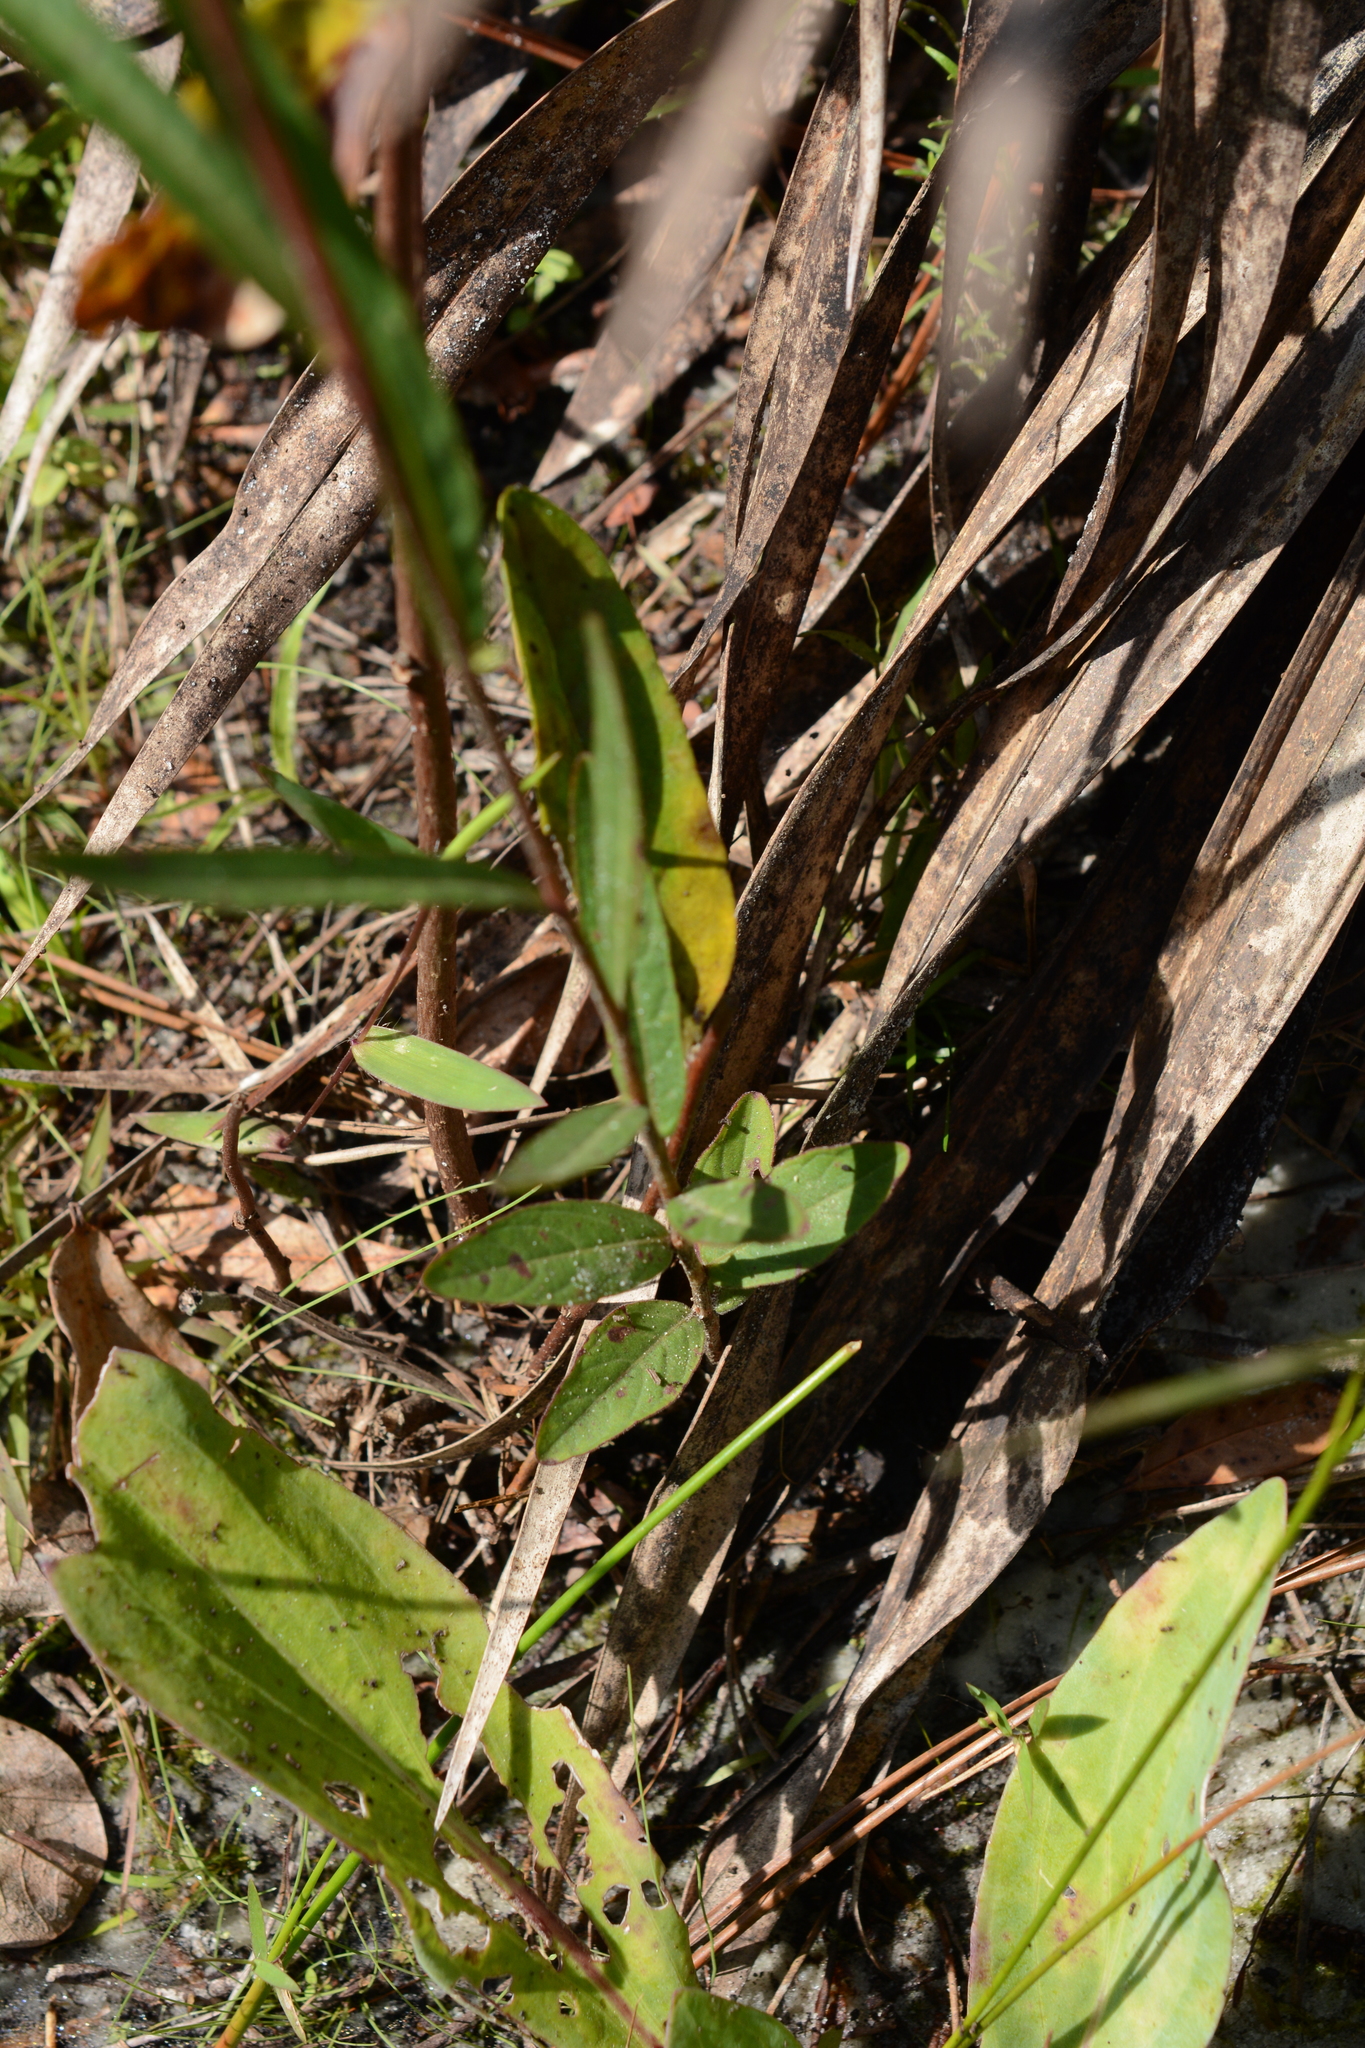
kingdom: Plantae
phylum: Tracheophyta
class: Magnoliopsida
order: Myrtales
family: Onagraceae
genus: Ludwigia
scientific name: Ludwigia maritima
